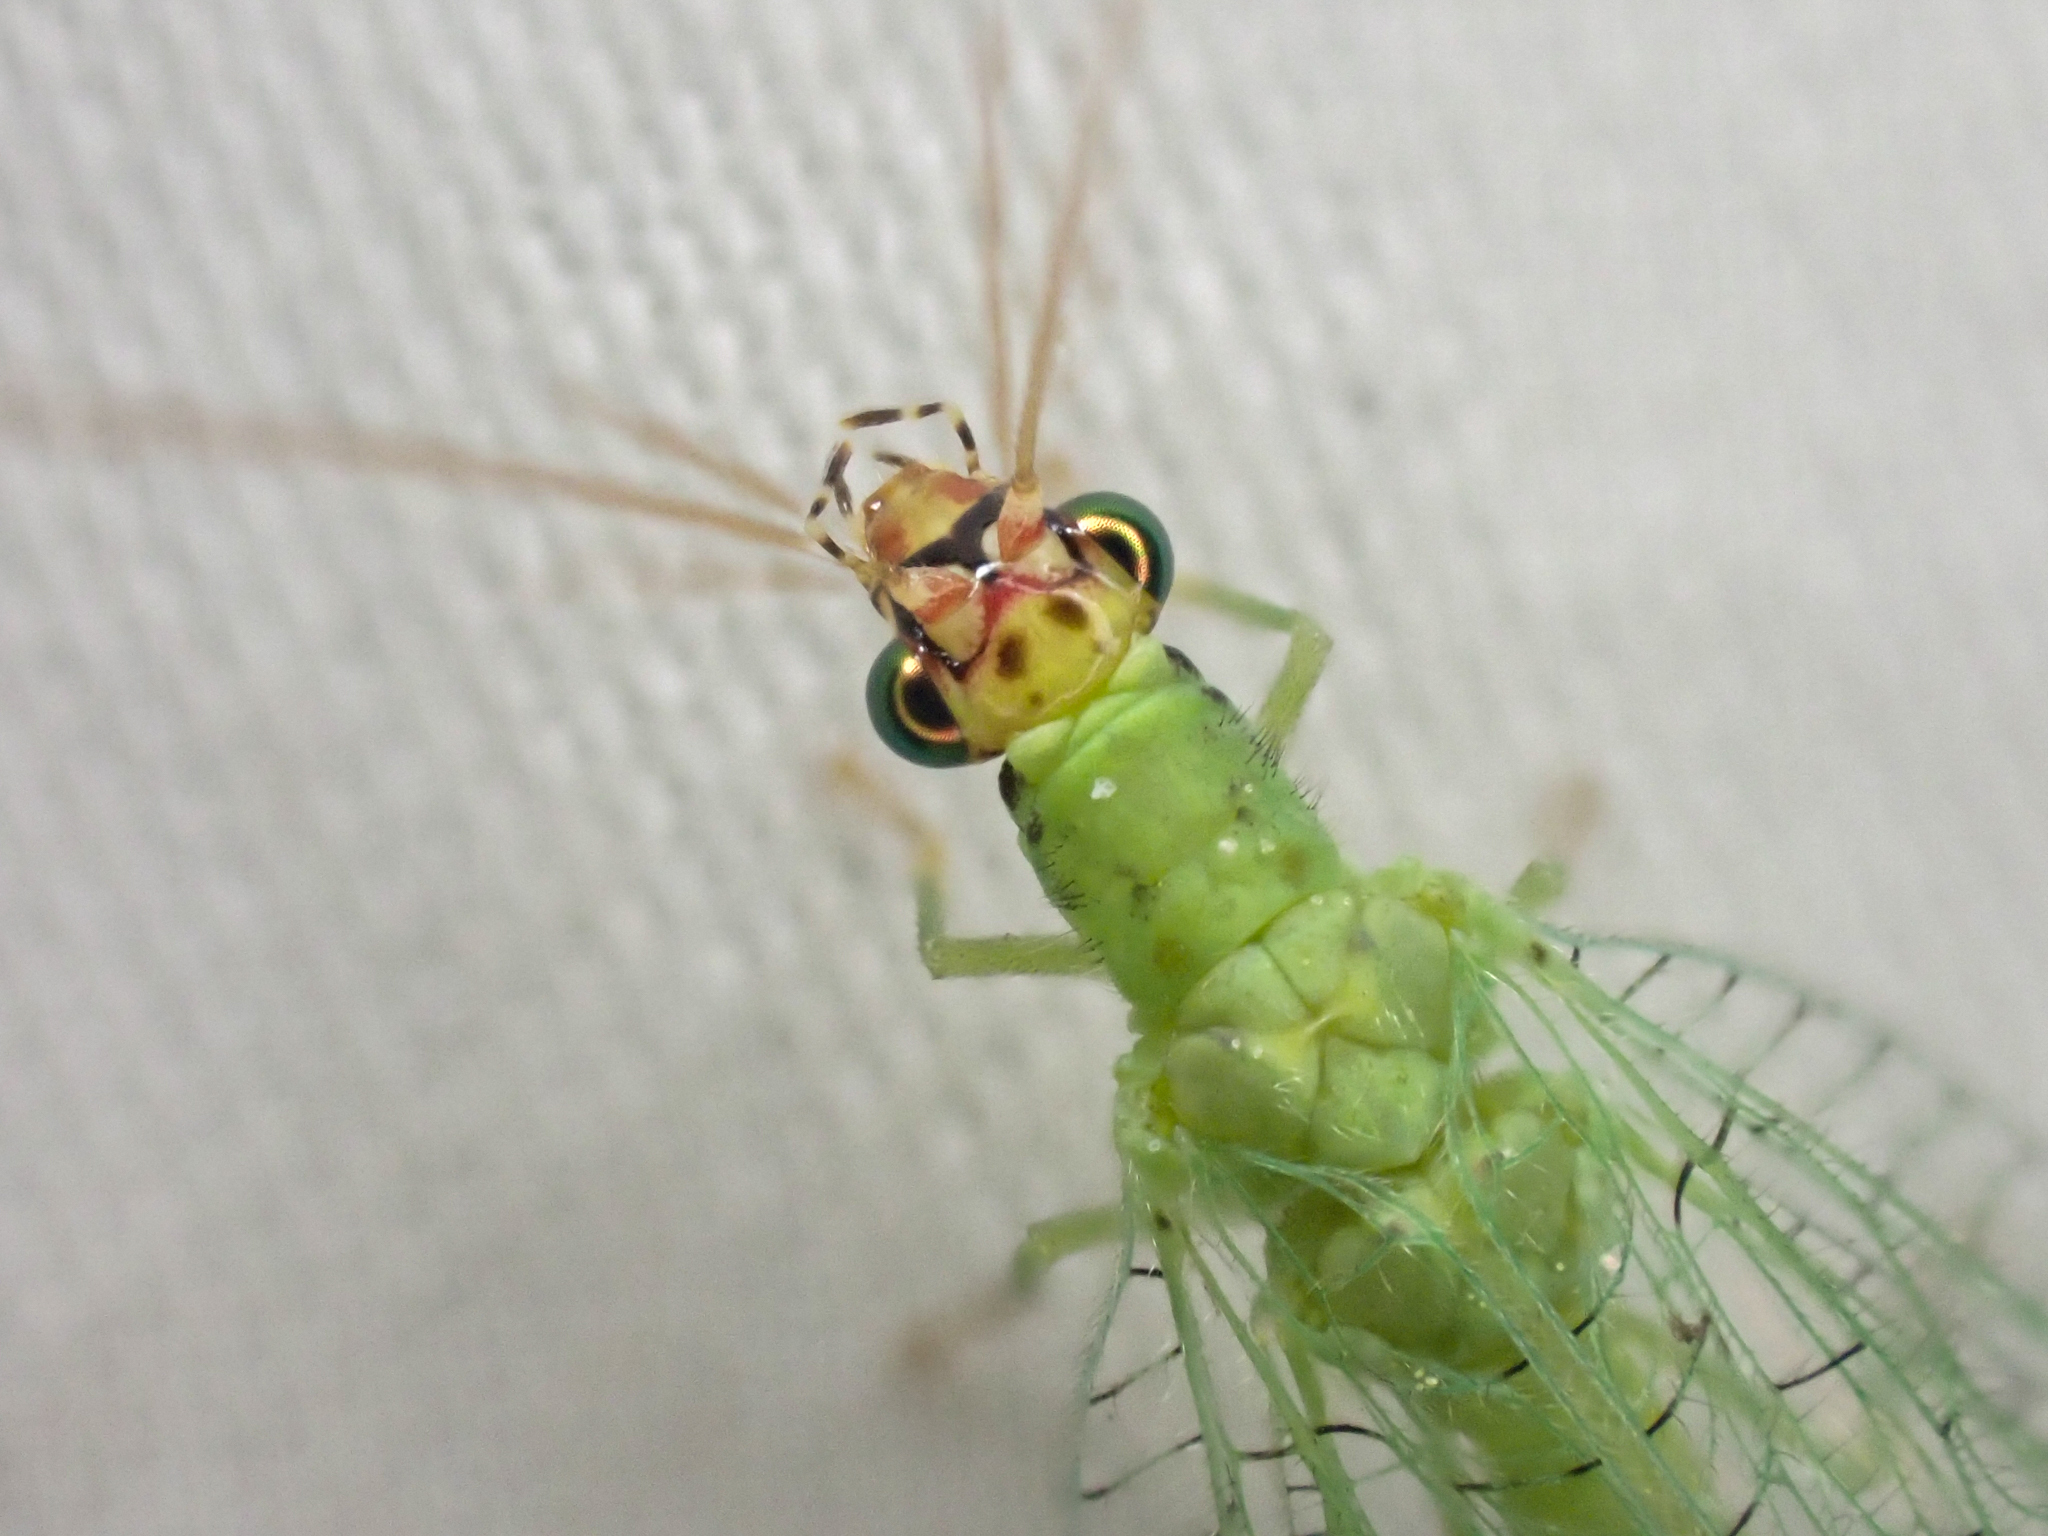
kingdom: Animalia
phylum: Arthropoda
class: Insecta
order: Neuroptera
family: Chrysopidae
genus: Chrysopa
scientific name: Chrysopa oculata
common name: Golden-eyed lacewing
